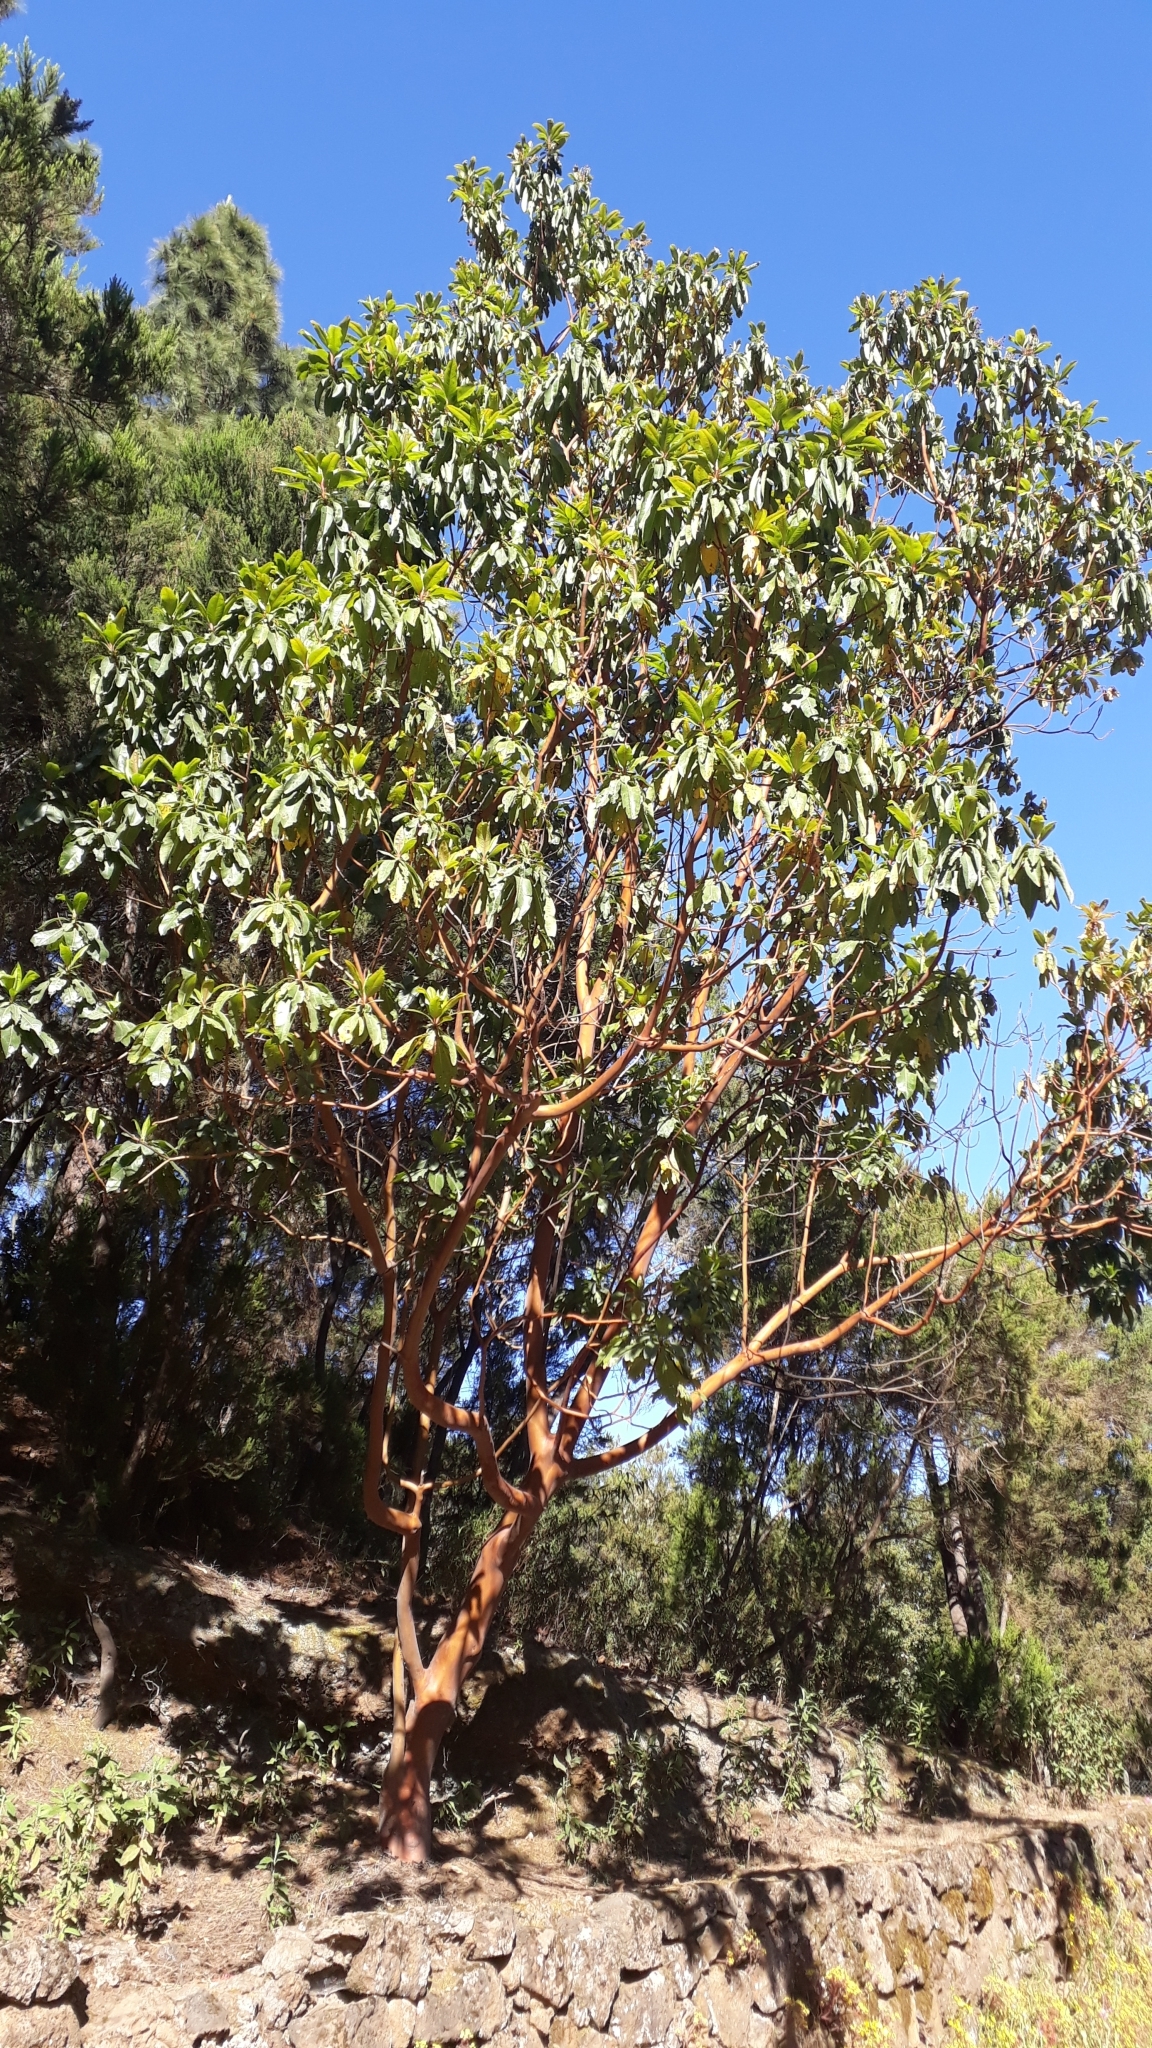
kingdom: Plantae
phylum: Tracheophyta
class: Magnoliopsida
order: Ericales
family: Ericaceae
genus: Arbutus
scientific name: Arbutus canariensis
